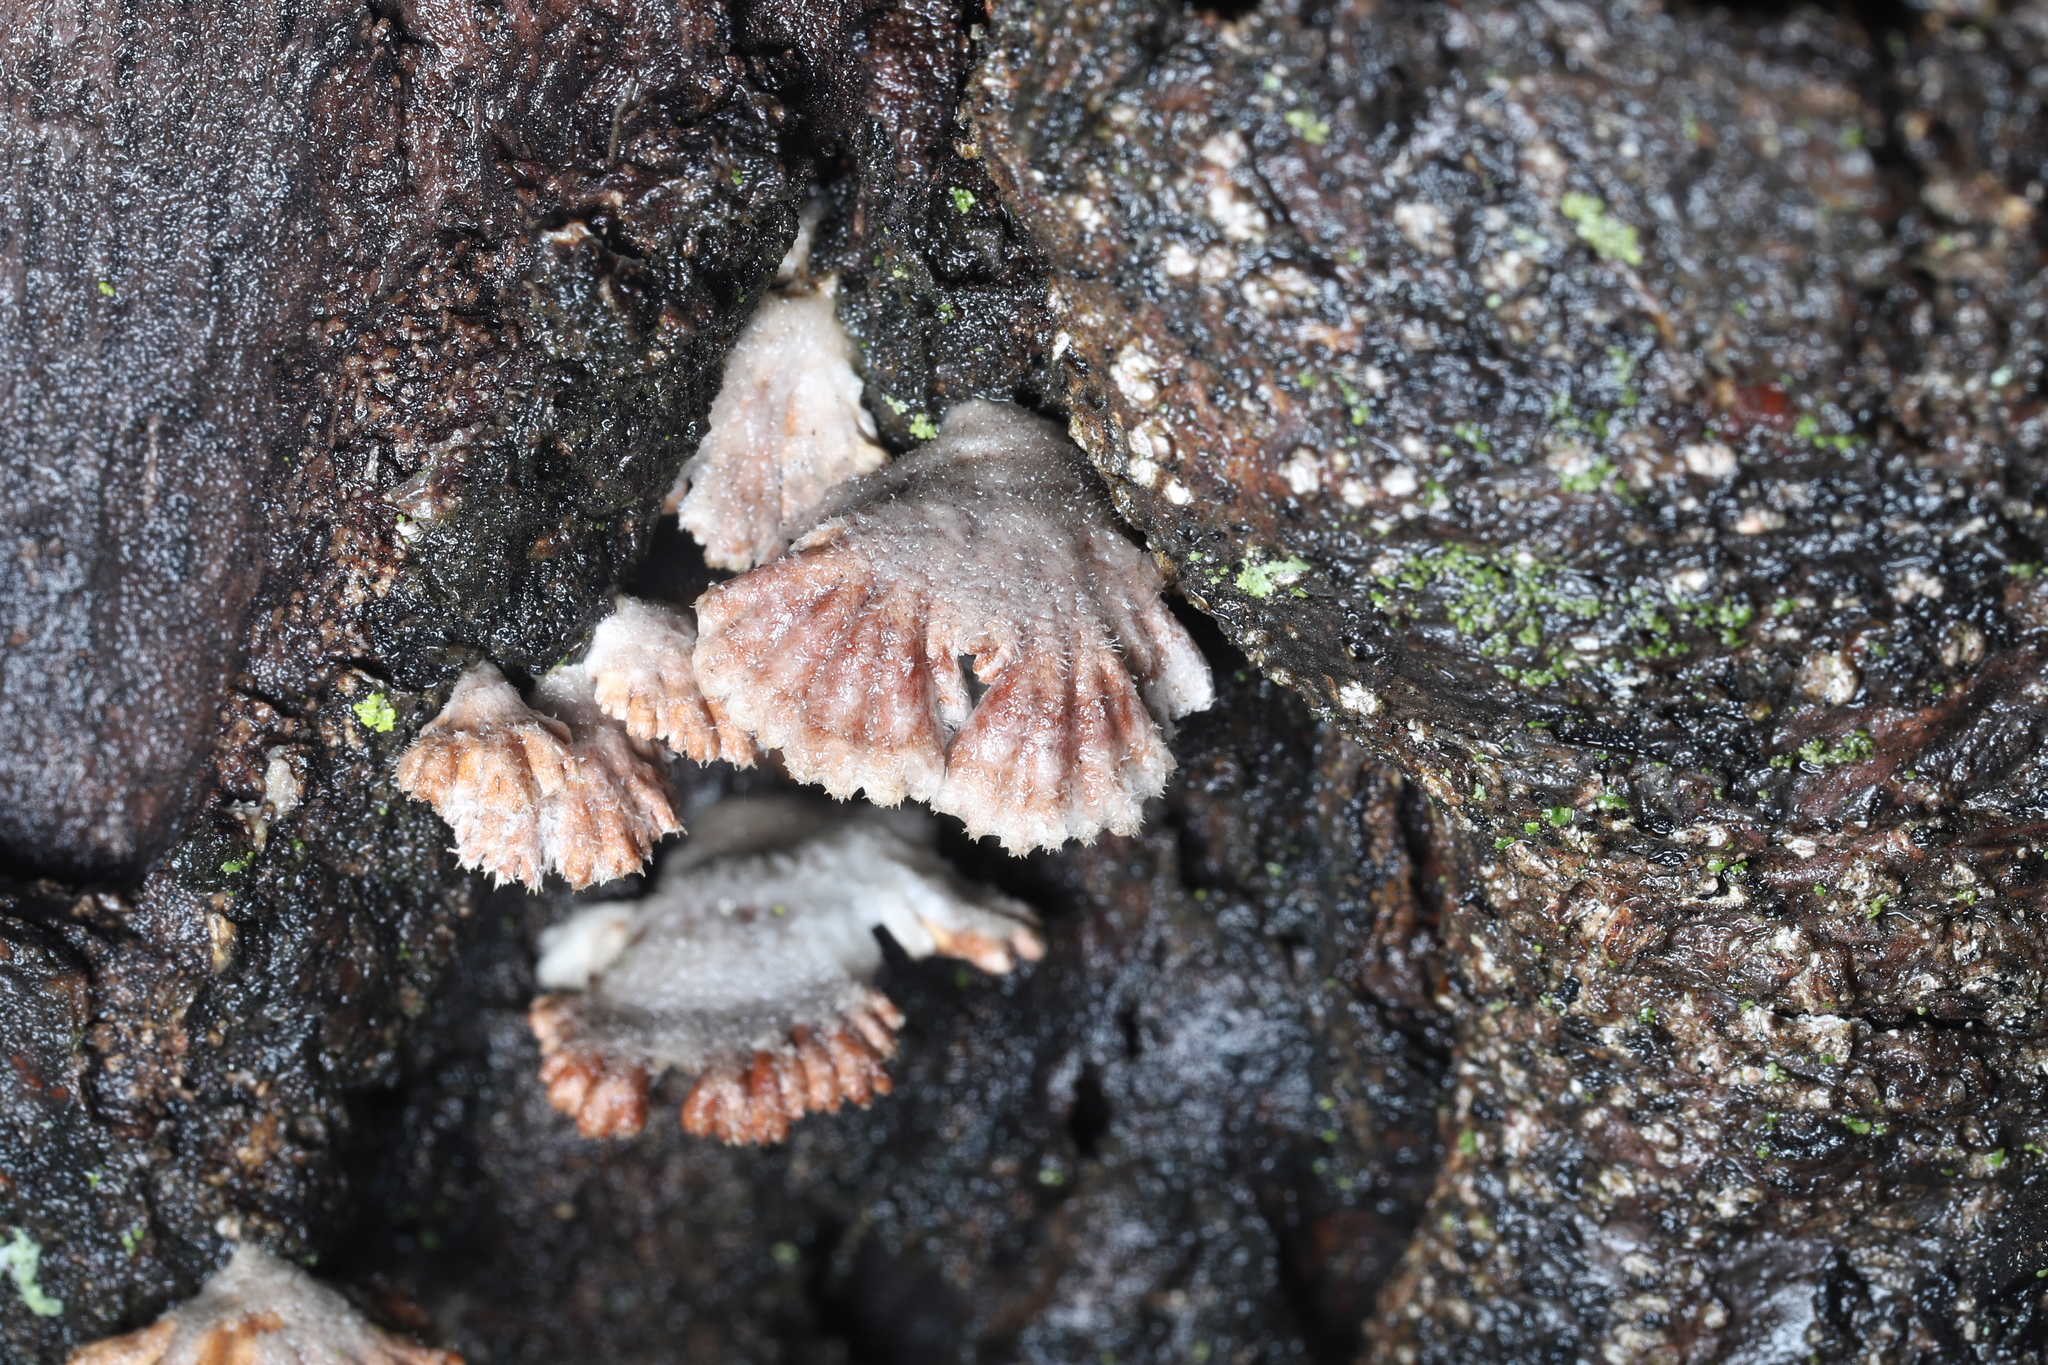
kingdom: Fungi
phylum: Basidiomycota
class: Agaricomycetes
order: Agaricales
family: Schizophyllaceae
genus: Schizophyllum
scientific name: Schizophyllum commune
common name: Common porecrust
